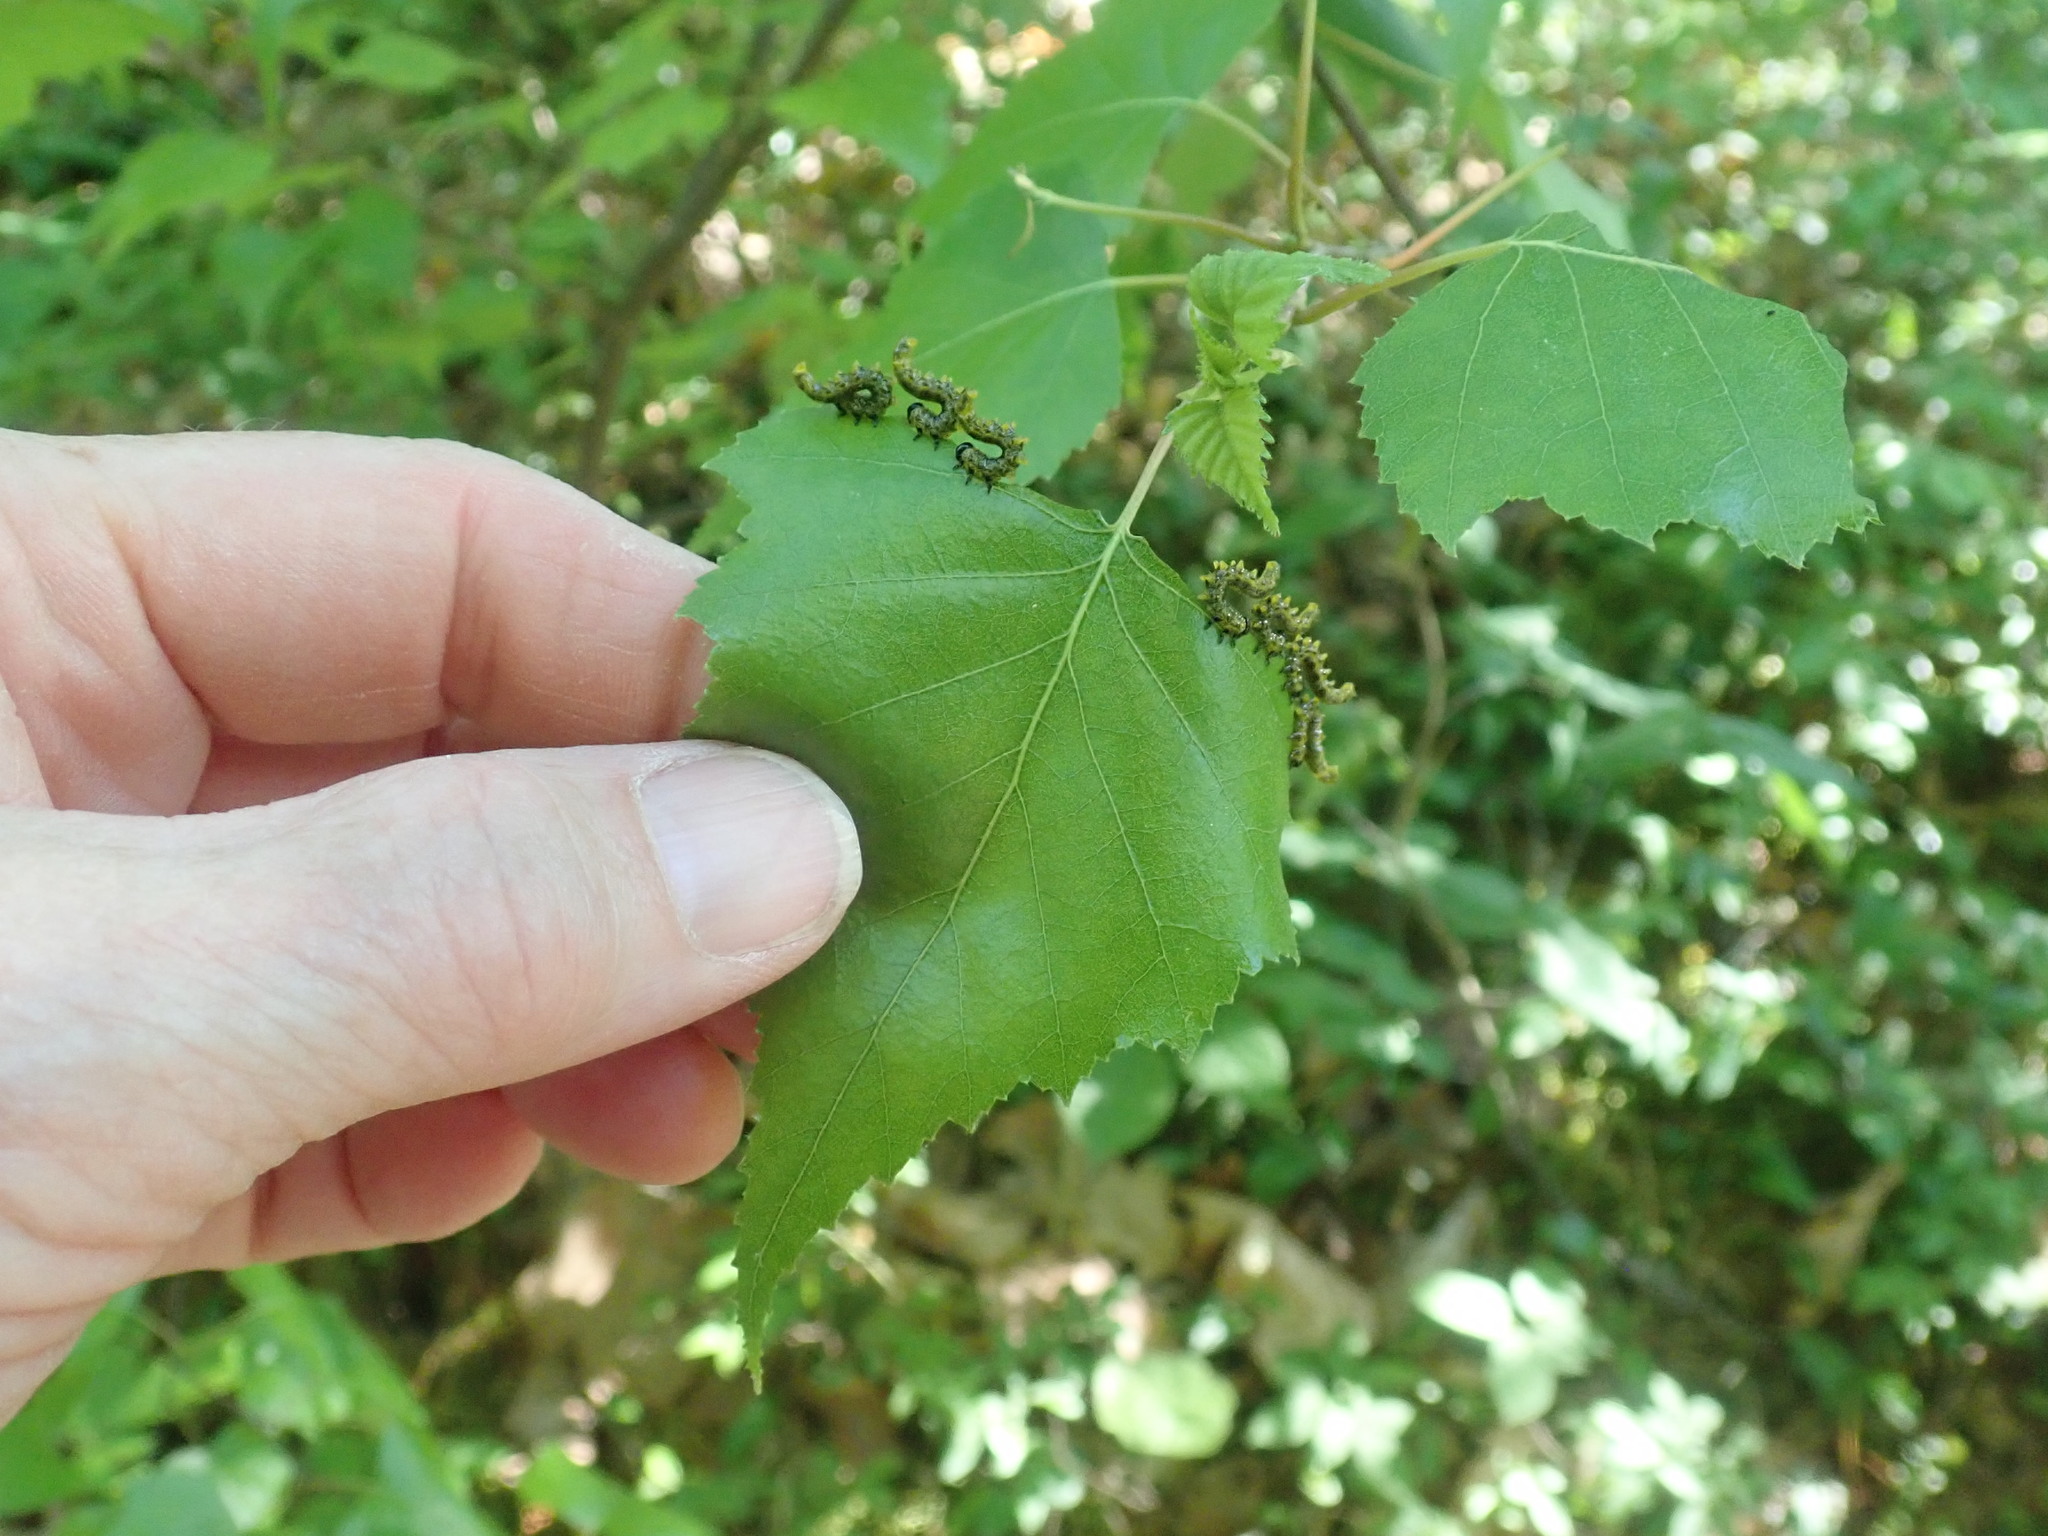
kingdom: Animalia
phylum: Arthropoda
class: Insecta
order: Hymenoptera
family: Tenthredinidae
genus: Nematus
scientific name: Nematus
